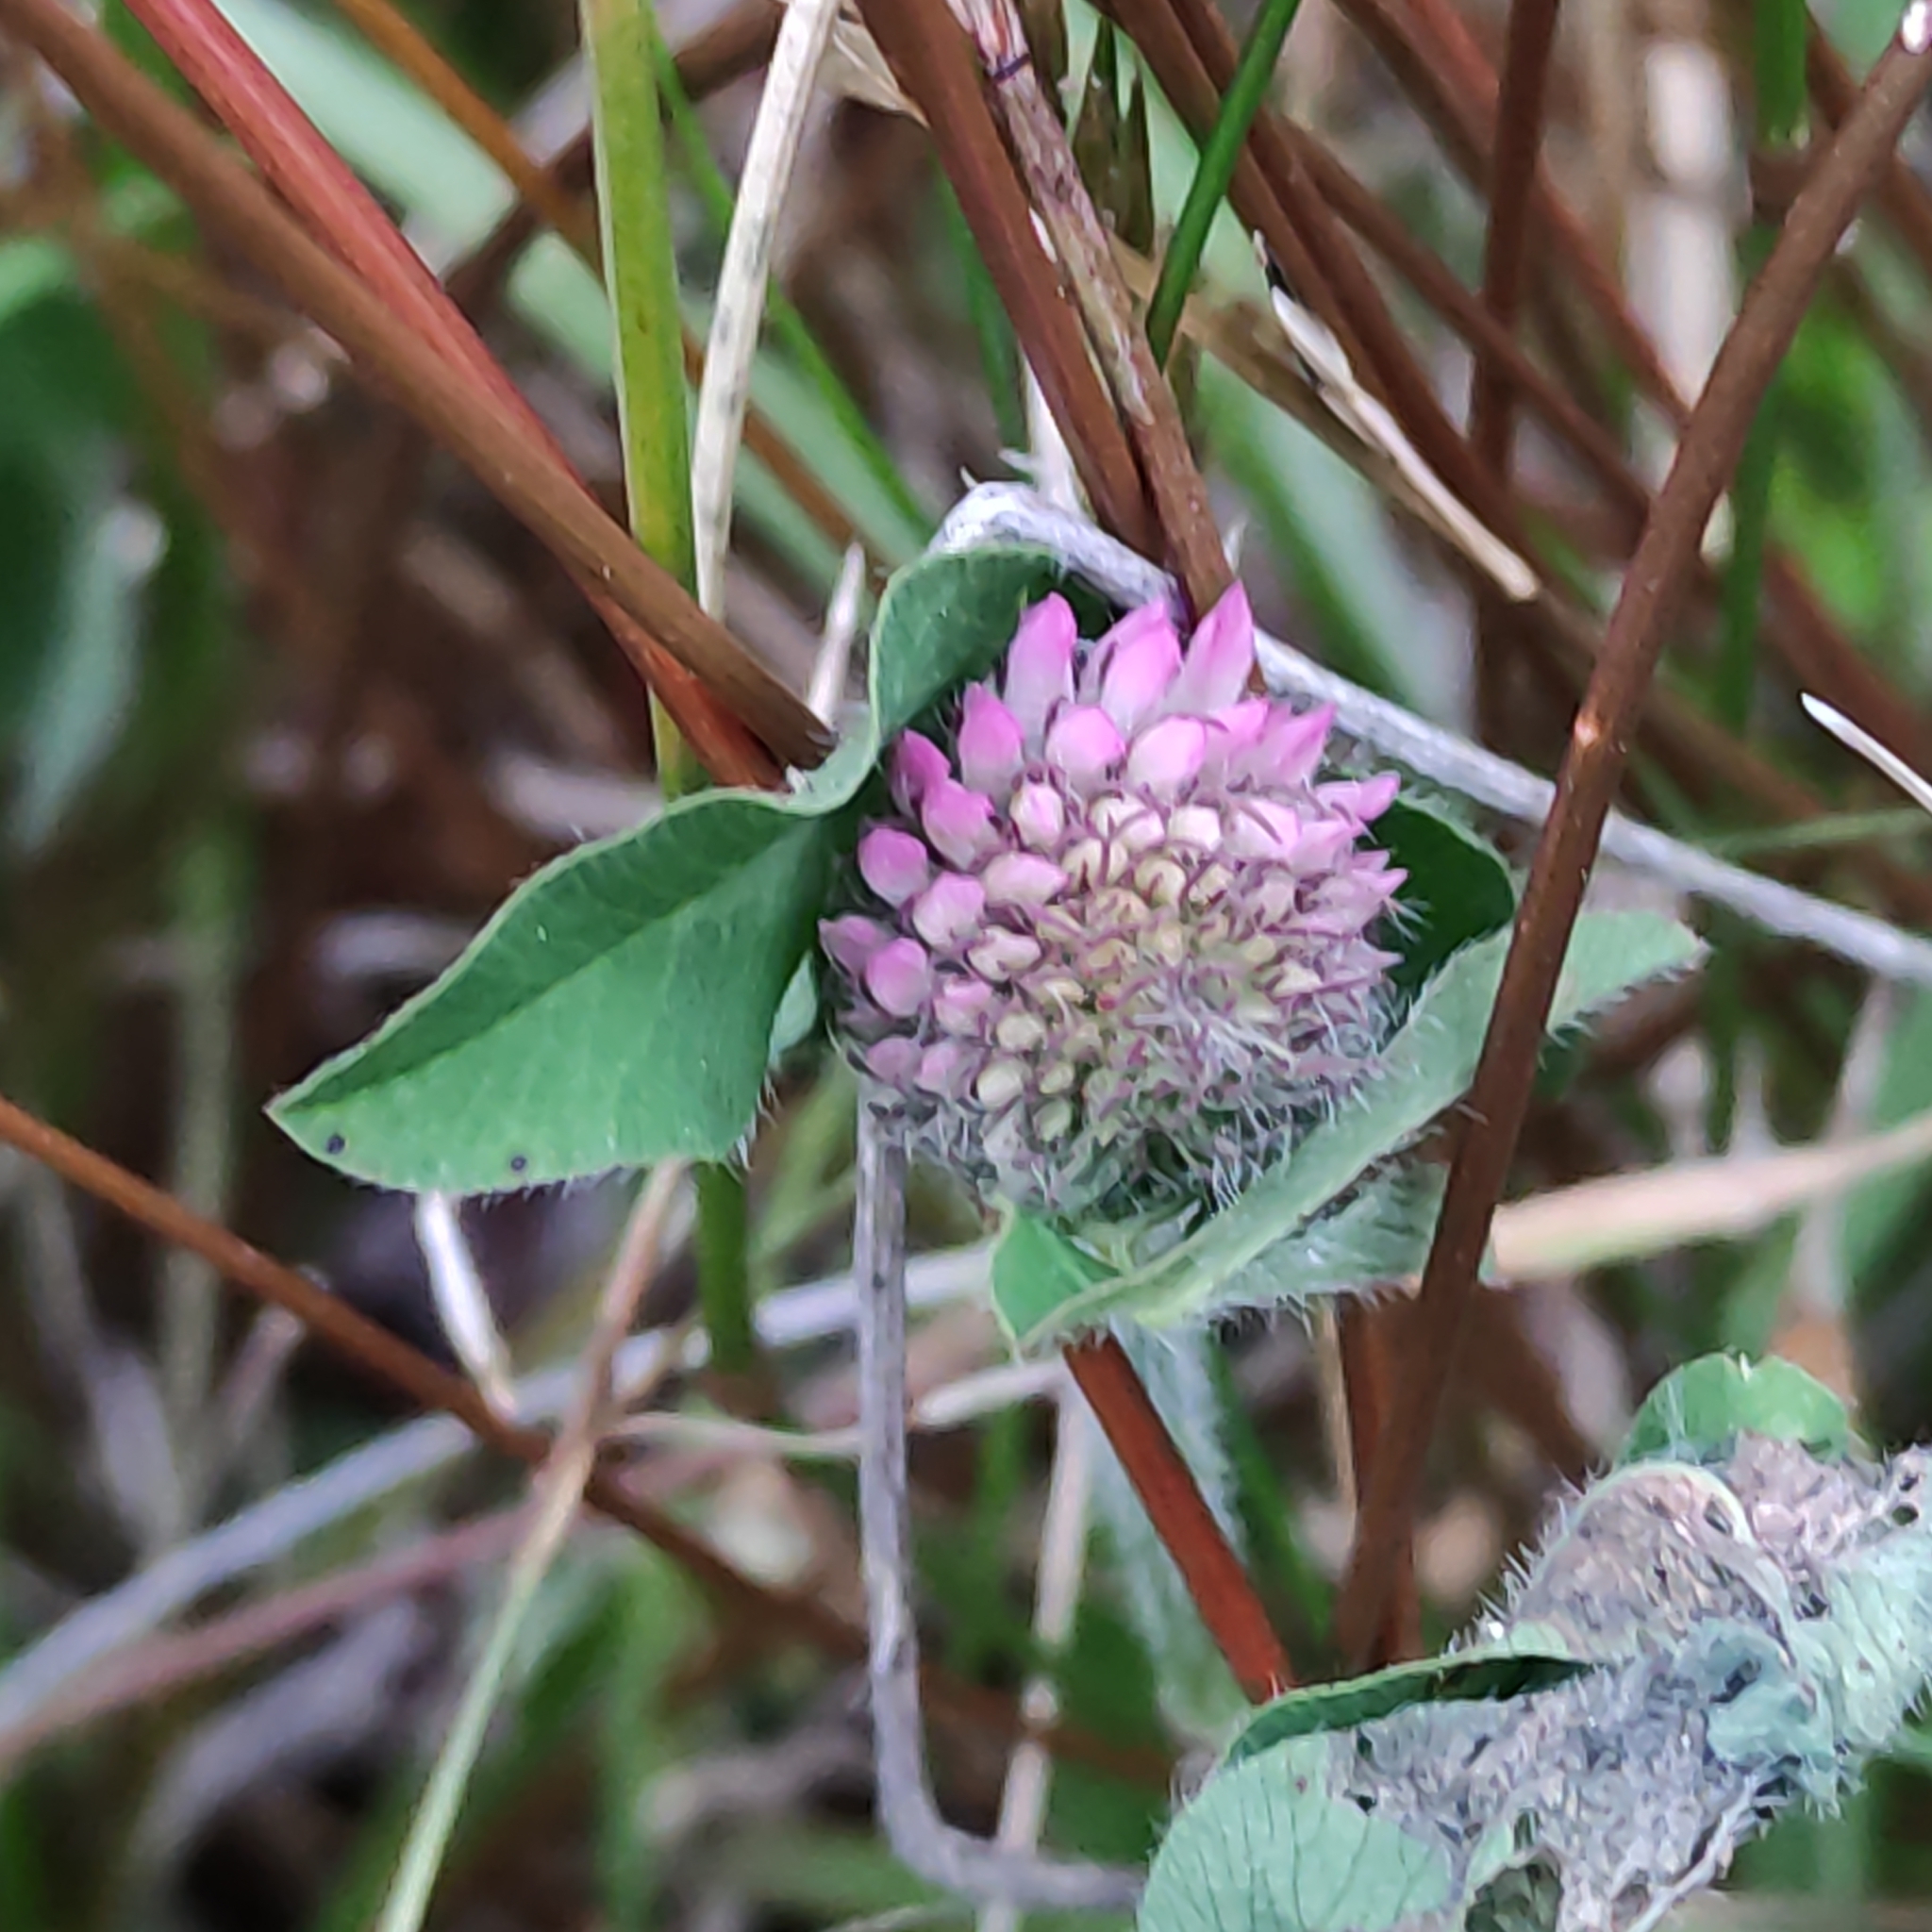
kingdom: Plantae
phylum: Tracheophyta
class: Magnoliopsida
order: Fabales
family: Fabaceae
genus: Trifolium
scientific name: Trifolium pratense
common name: Red clover
